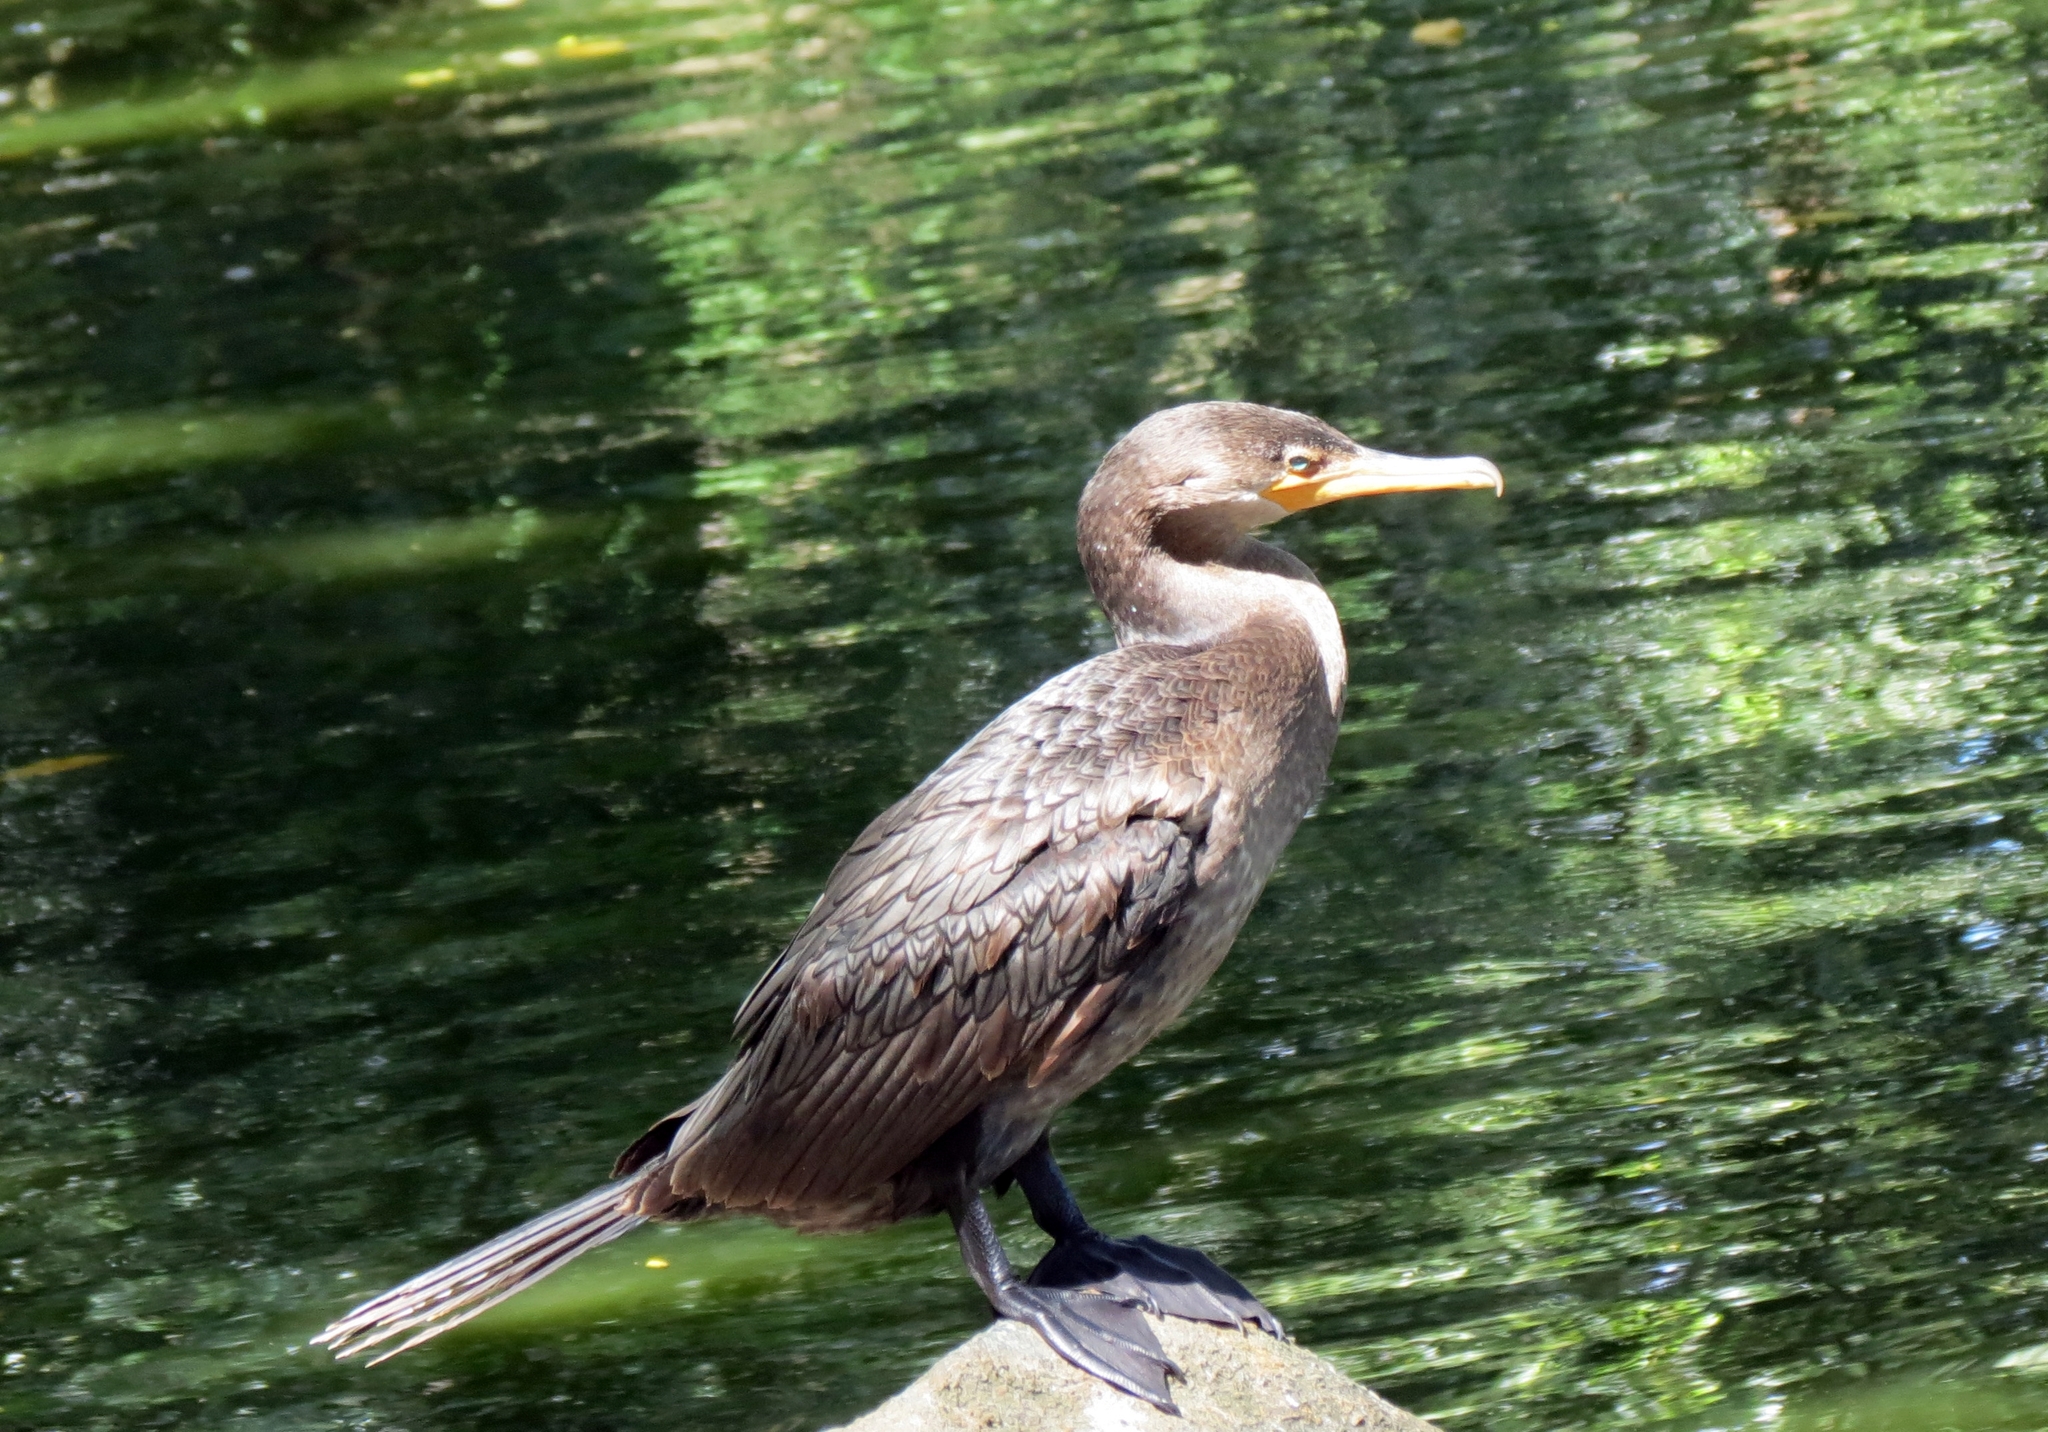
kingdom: Animalia
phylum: Chordata
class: Aves
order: Suliformes
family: Phalacrocoracidae
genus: Phalacrocorax
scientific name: Phalacrocorax brasilianus
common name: Neotropic cormorant
